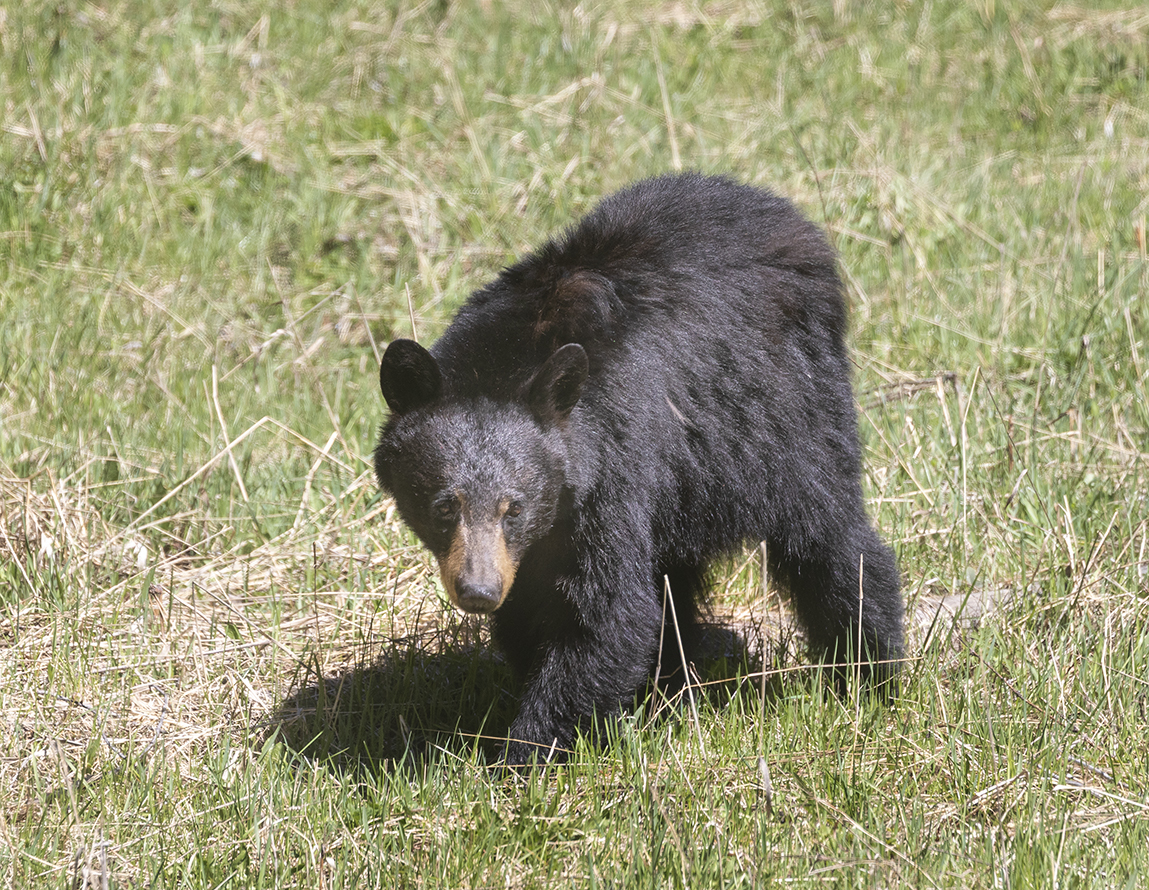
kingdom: Animalia
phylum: Chordata
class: Mammalia
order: Carnivora
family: Ursidae
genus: Ursus
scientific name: Ursus americanus
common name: American black bear
